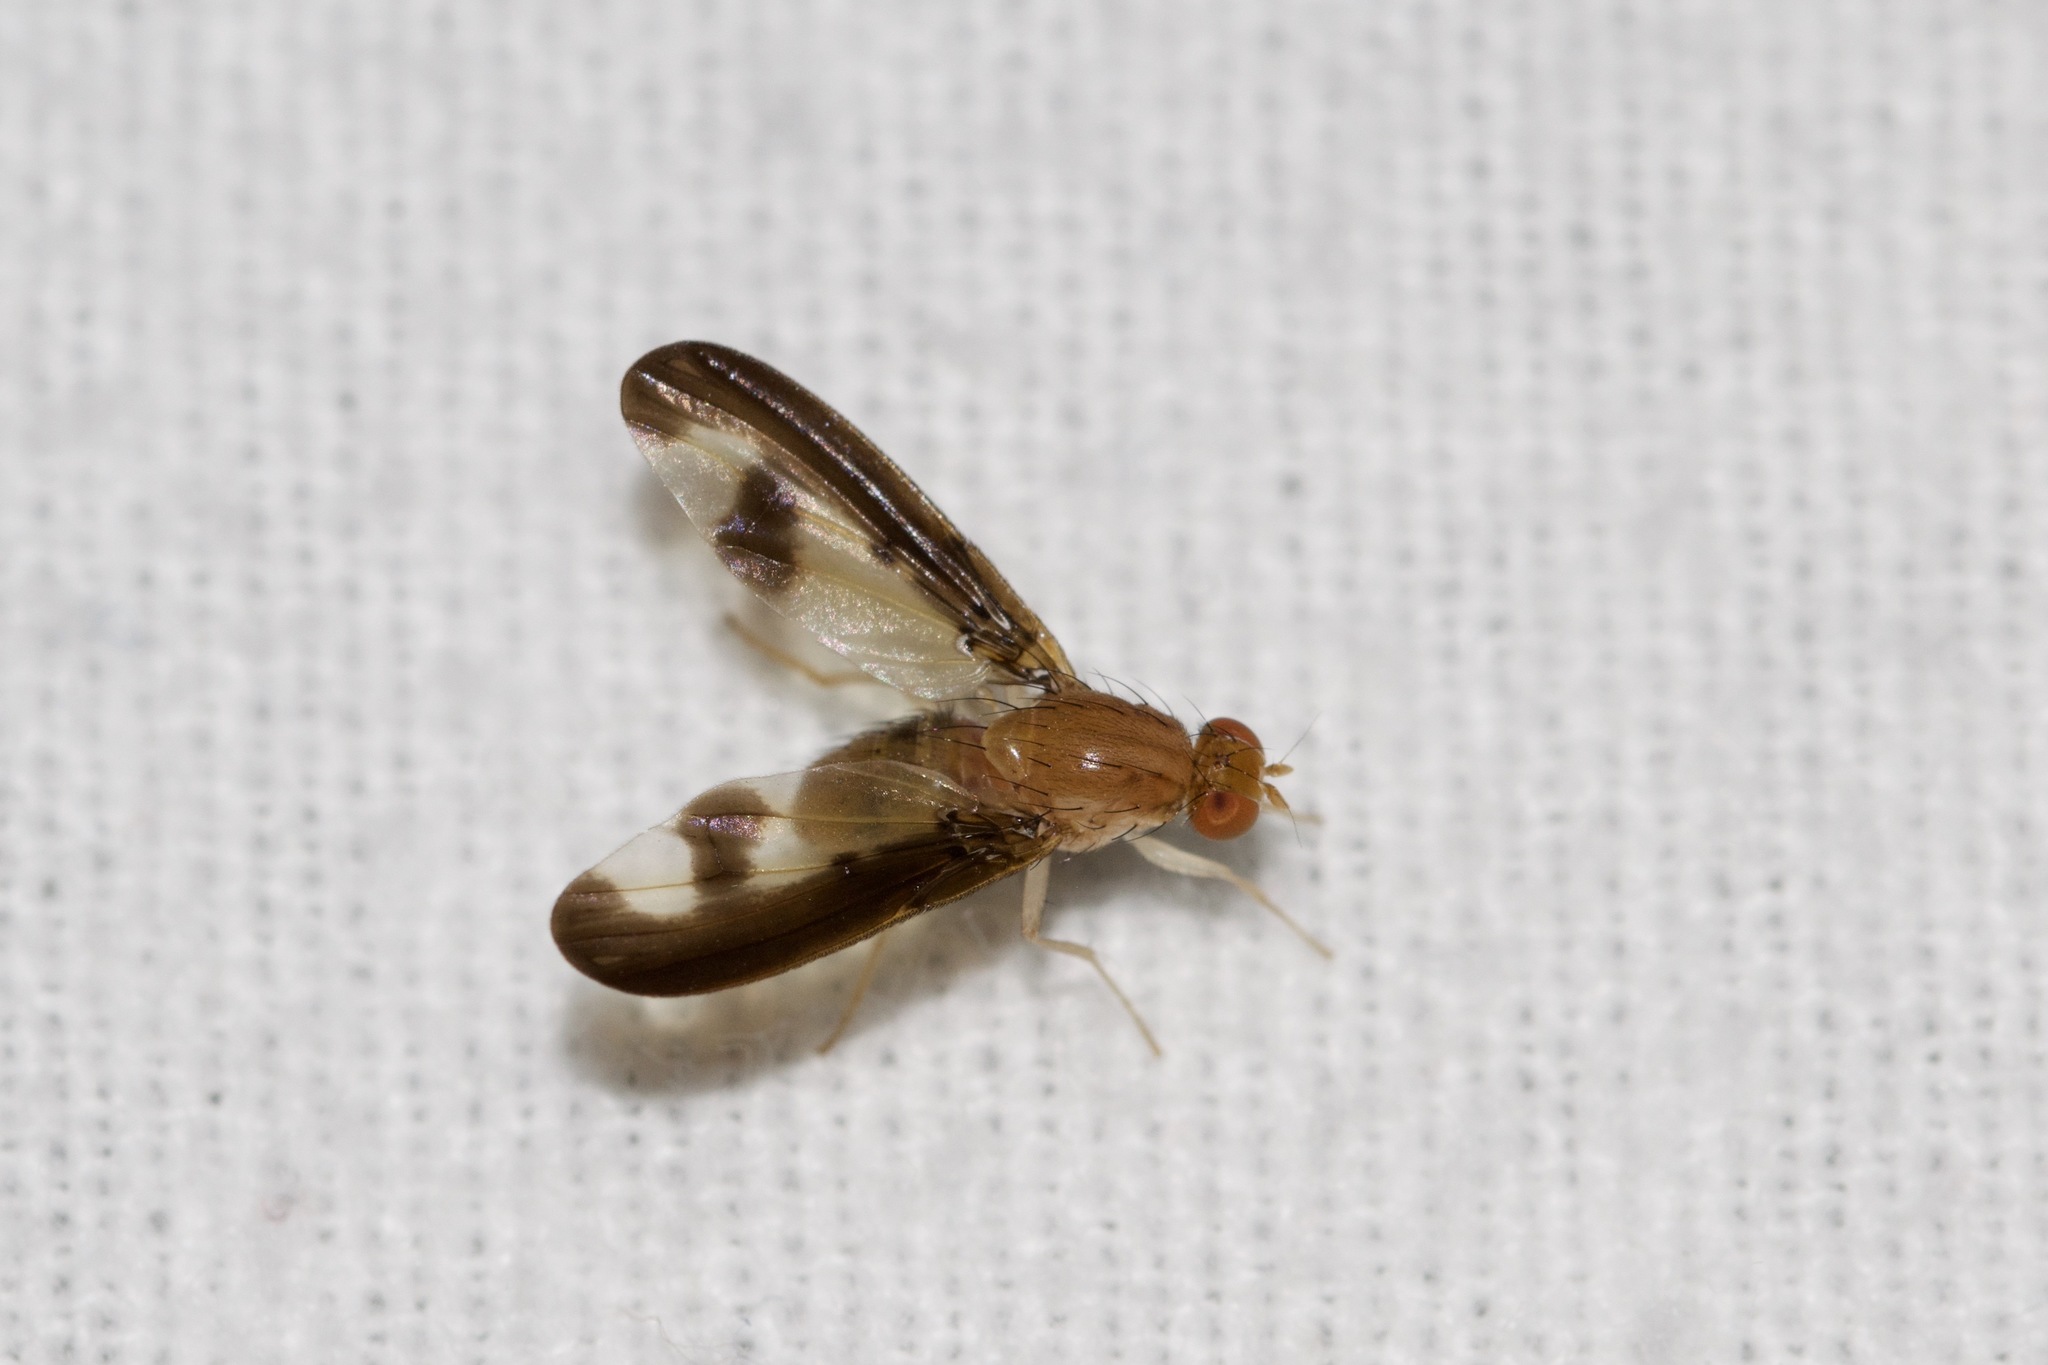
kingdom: Animalia
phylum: Arthropoda
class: Insecta
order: Diptera
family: Pallopteridae
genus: Toxonevra
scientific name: Toxonevra superba
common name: Antlered flutter fly
